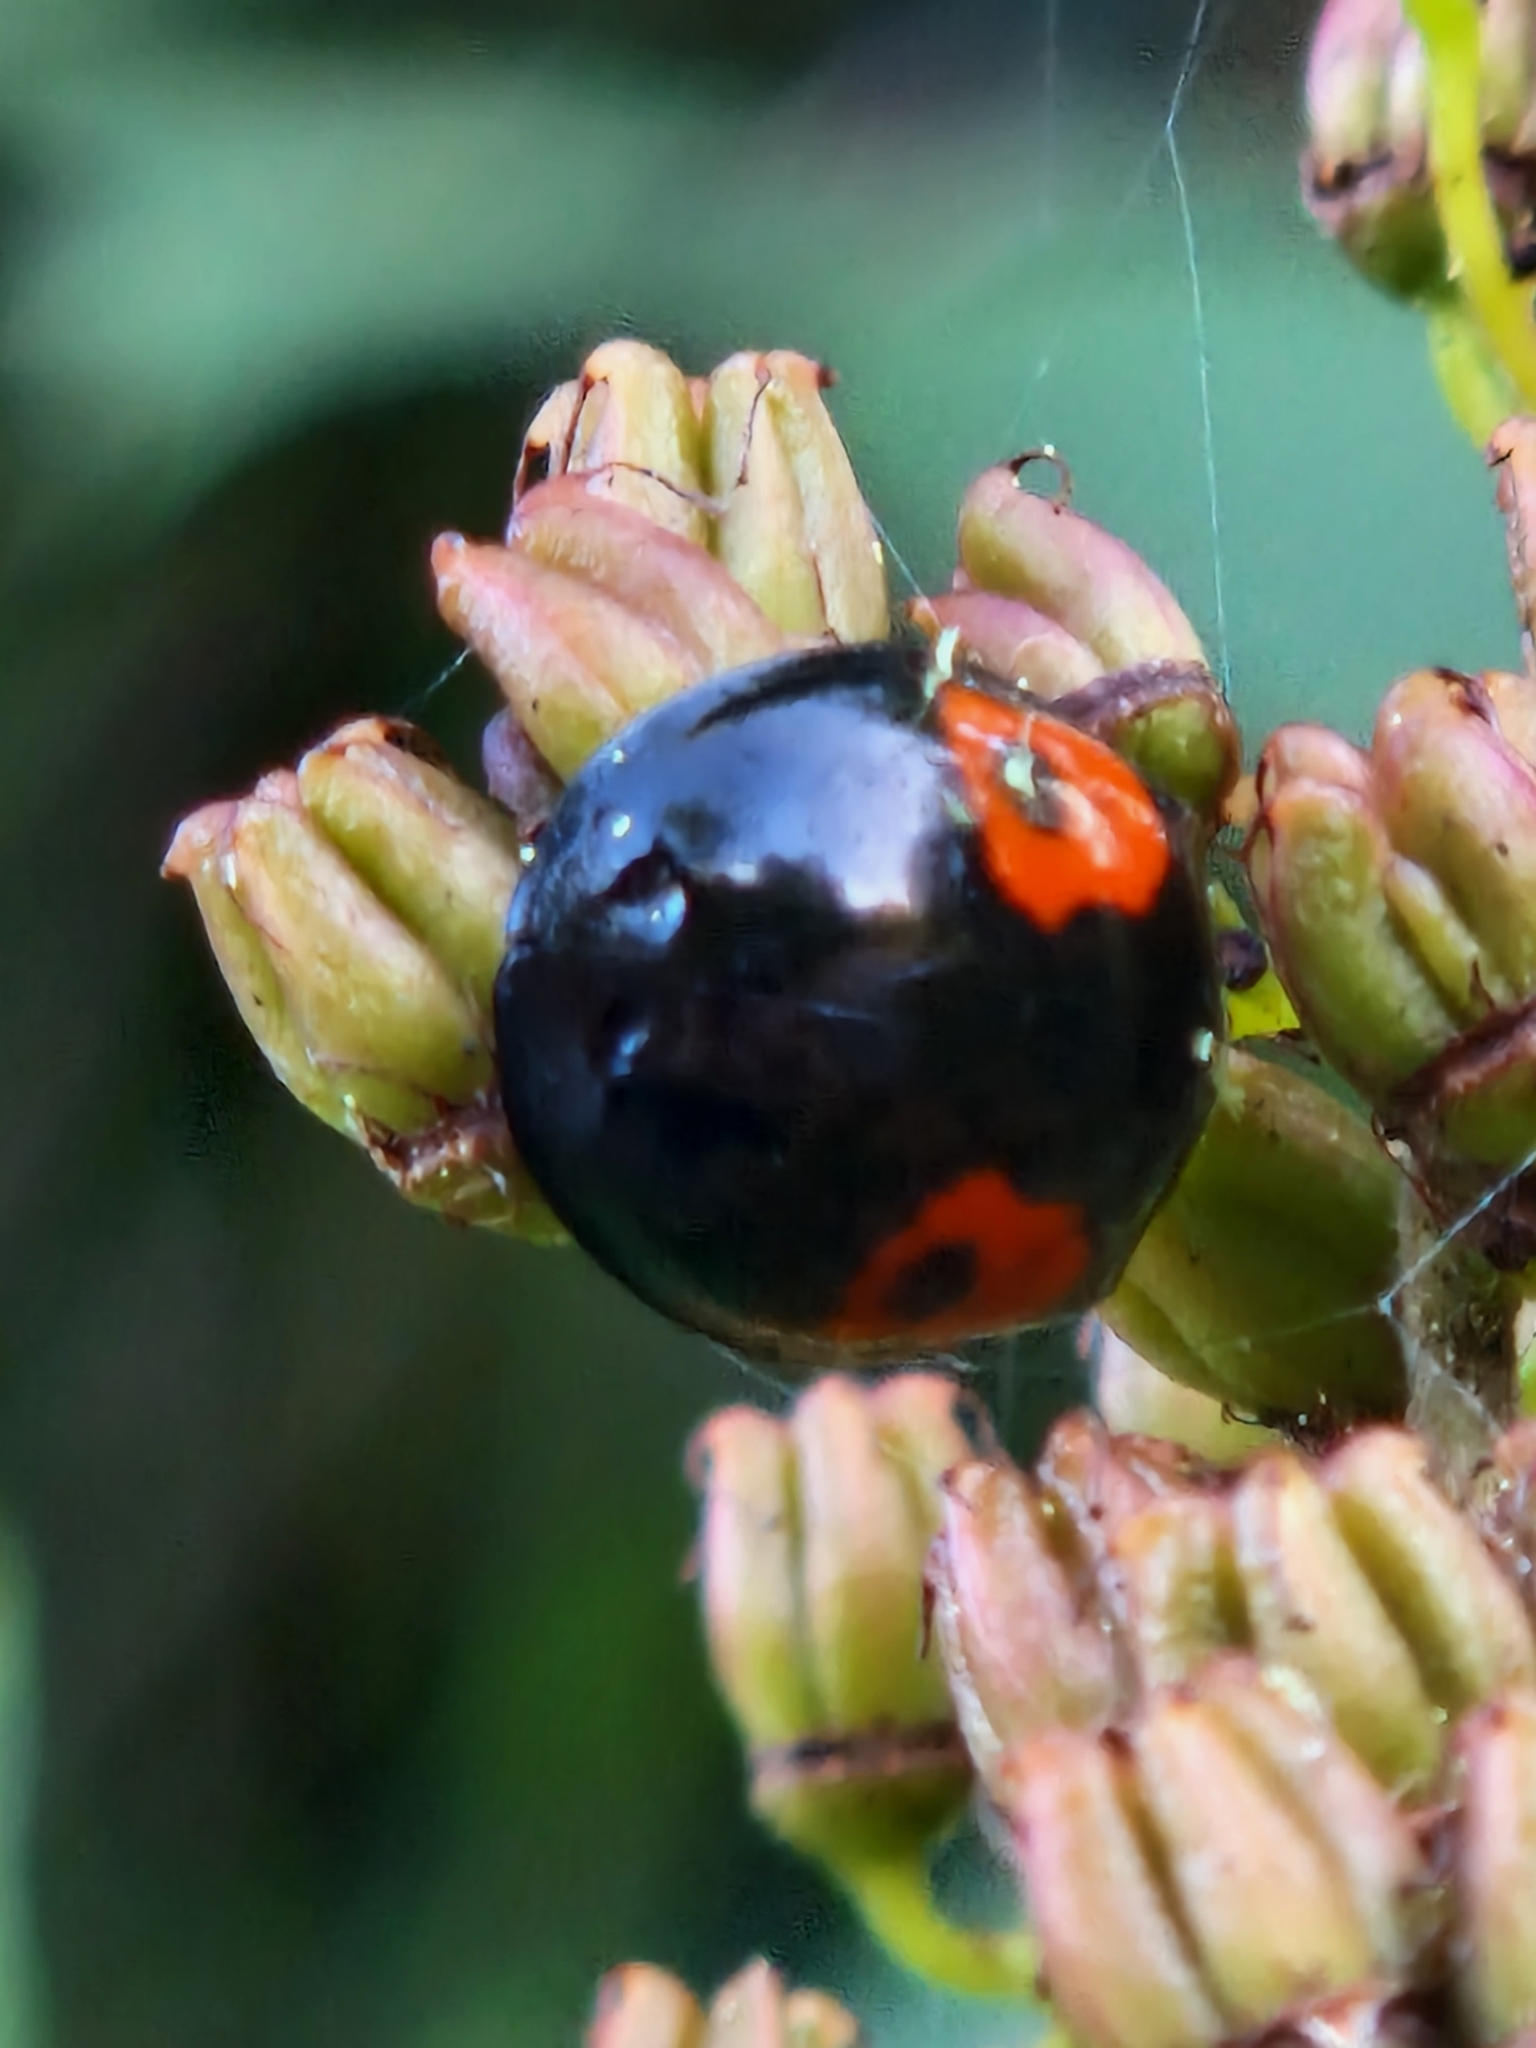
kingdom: Animalia
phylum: Arthropoda
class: Insecta
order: Coleoptera
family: Coccinellidae
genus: Harmonia
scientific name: Harmonia axyridis
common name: Harlequin ladybird
